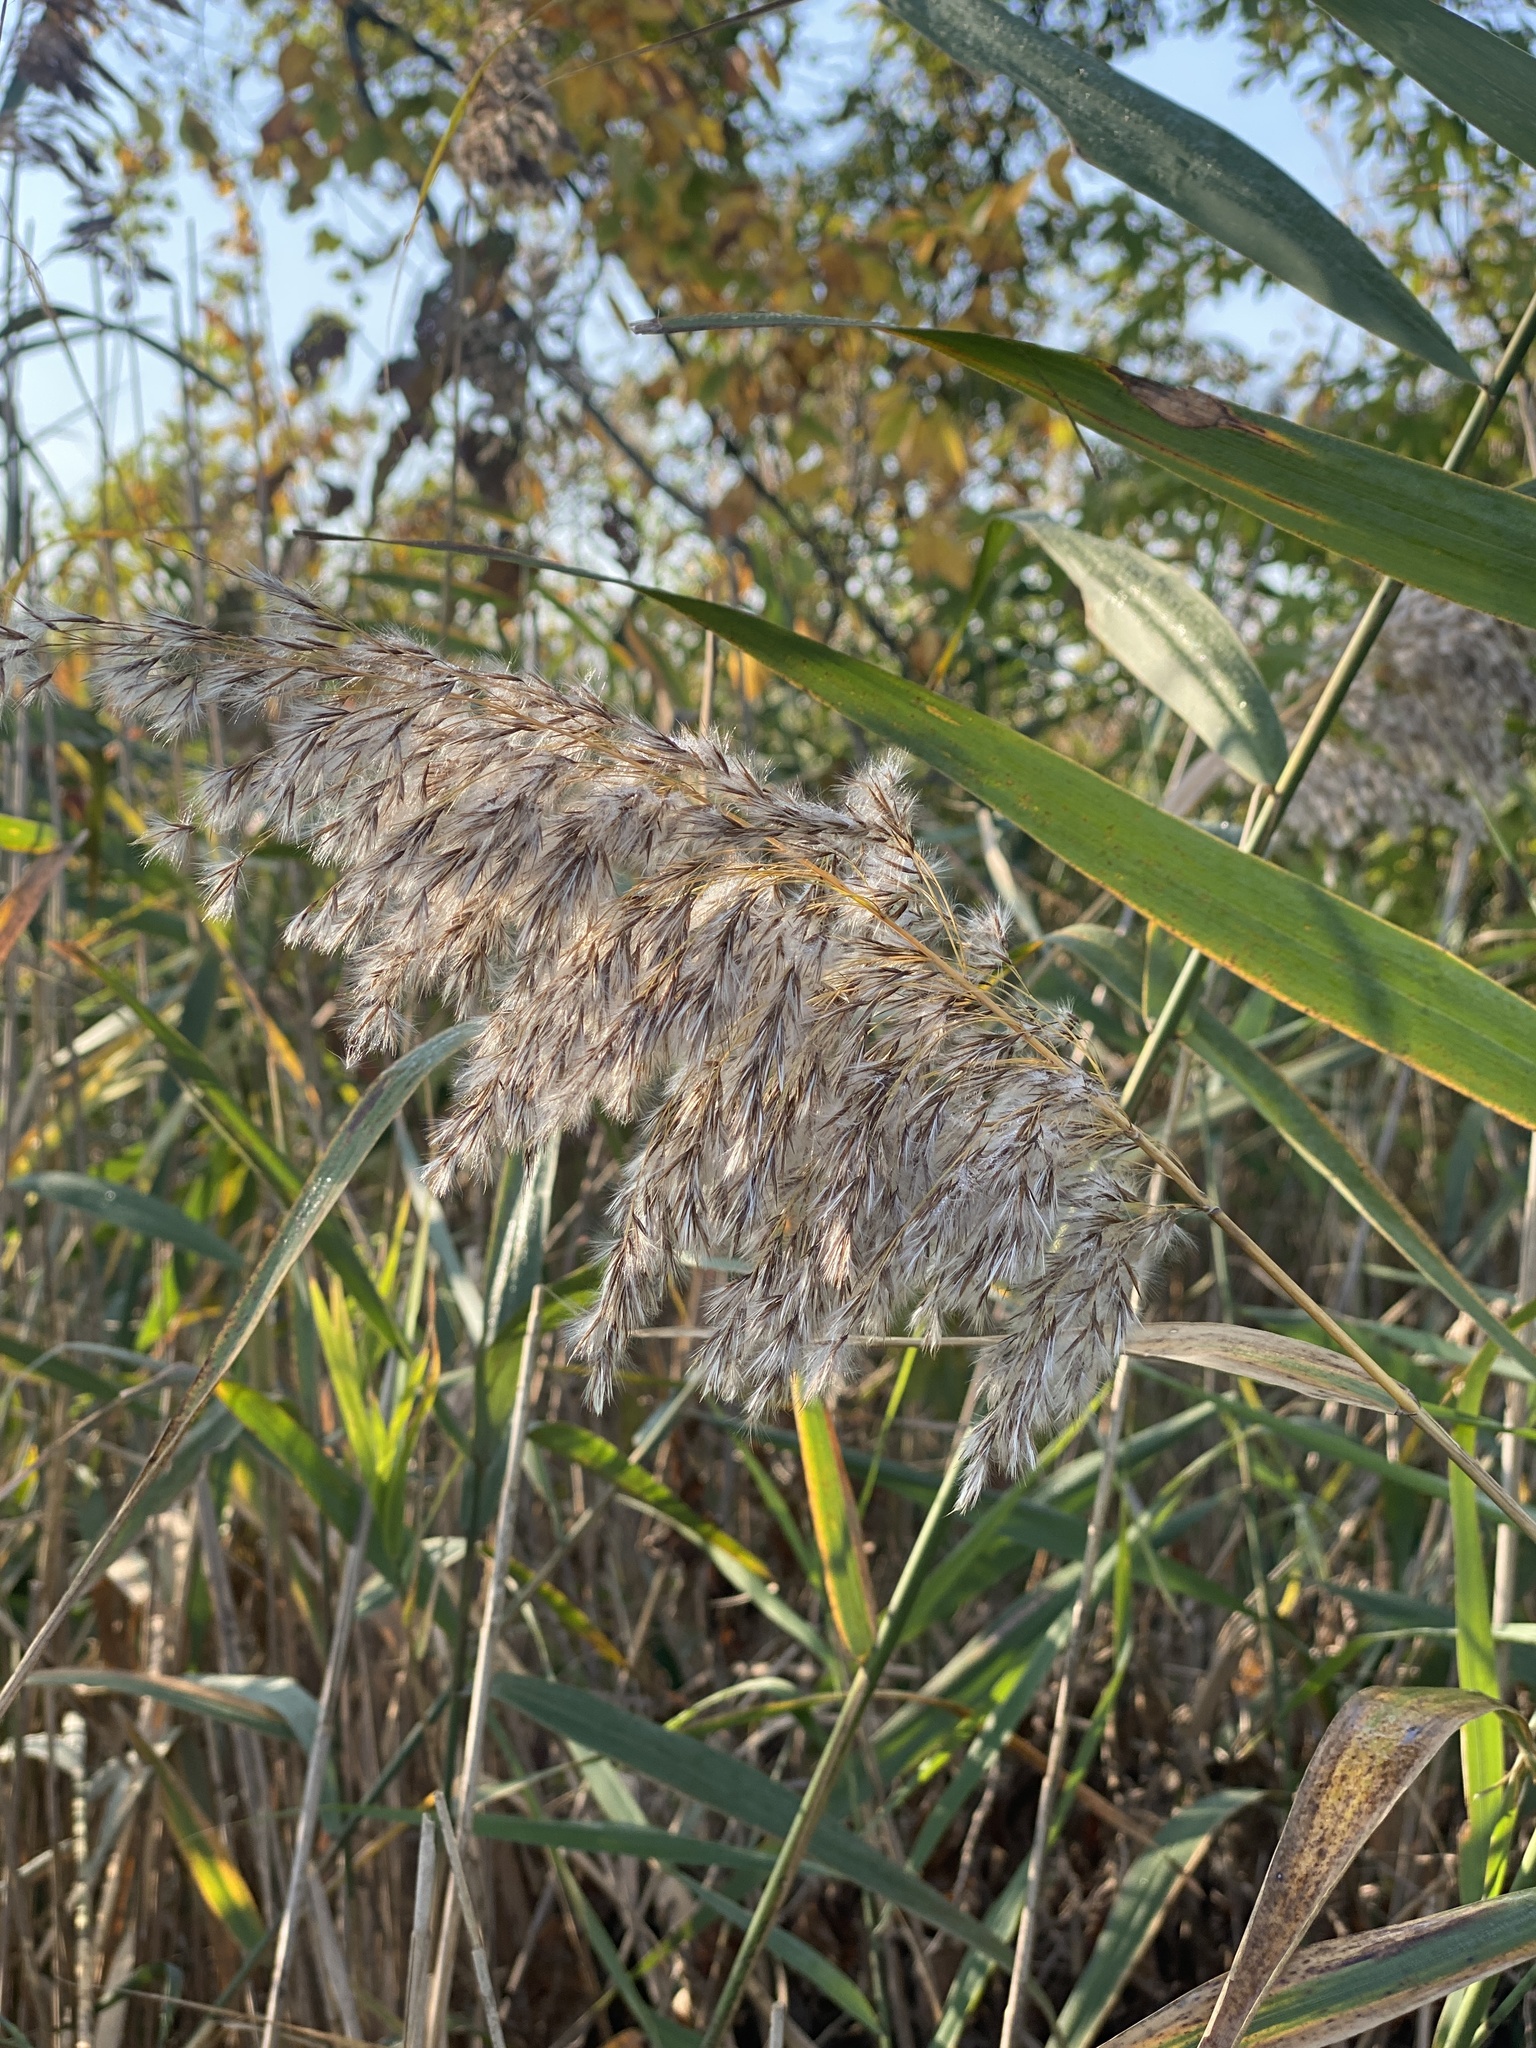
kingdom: Plantae
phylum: Tracheophyta
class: Liliopsida
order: Poales
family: Poaceae
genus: Phragmites
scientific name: Phragmites australis
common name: Common reed
